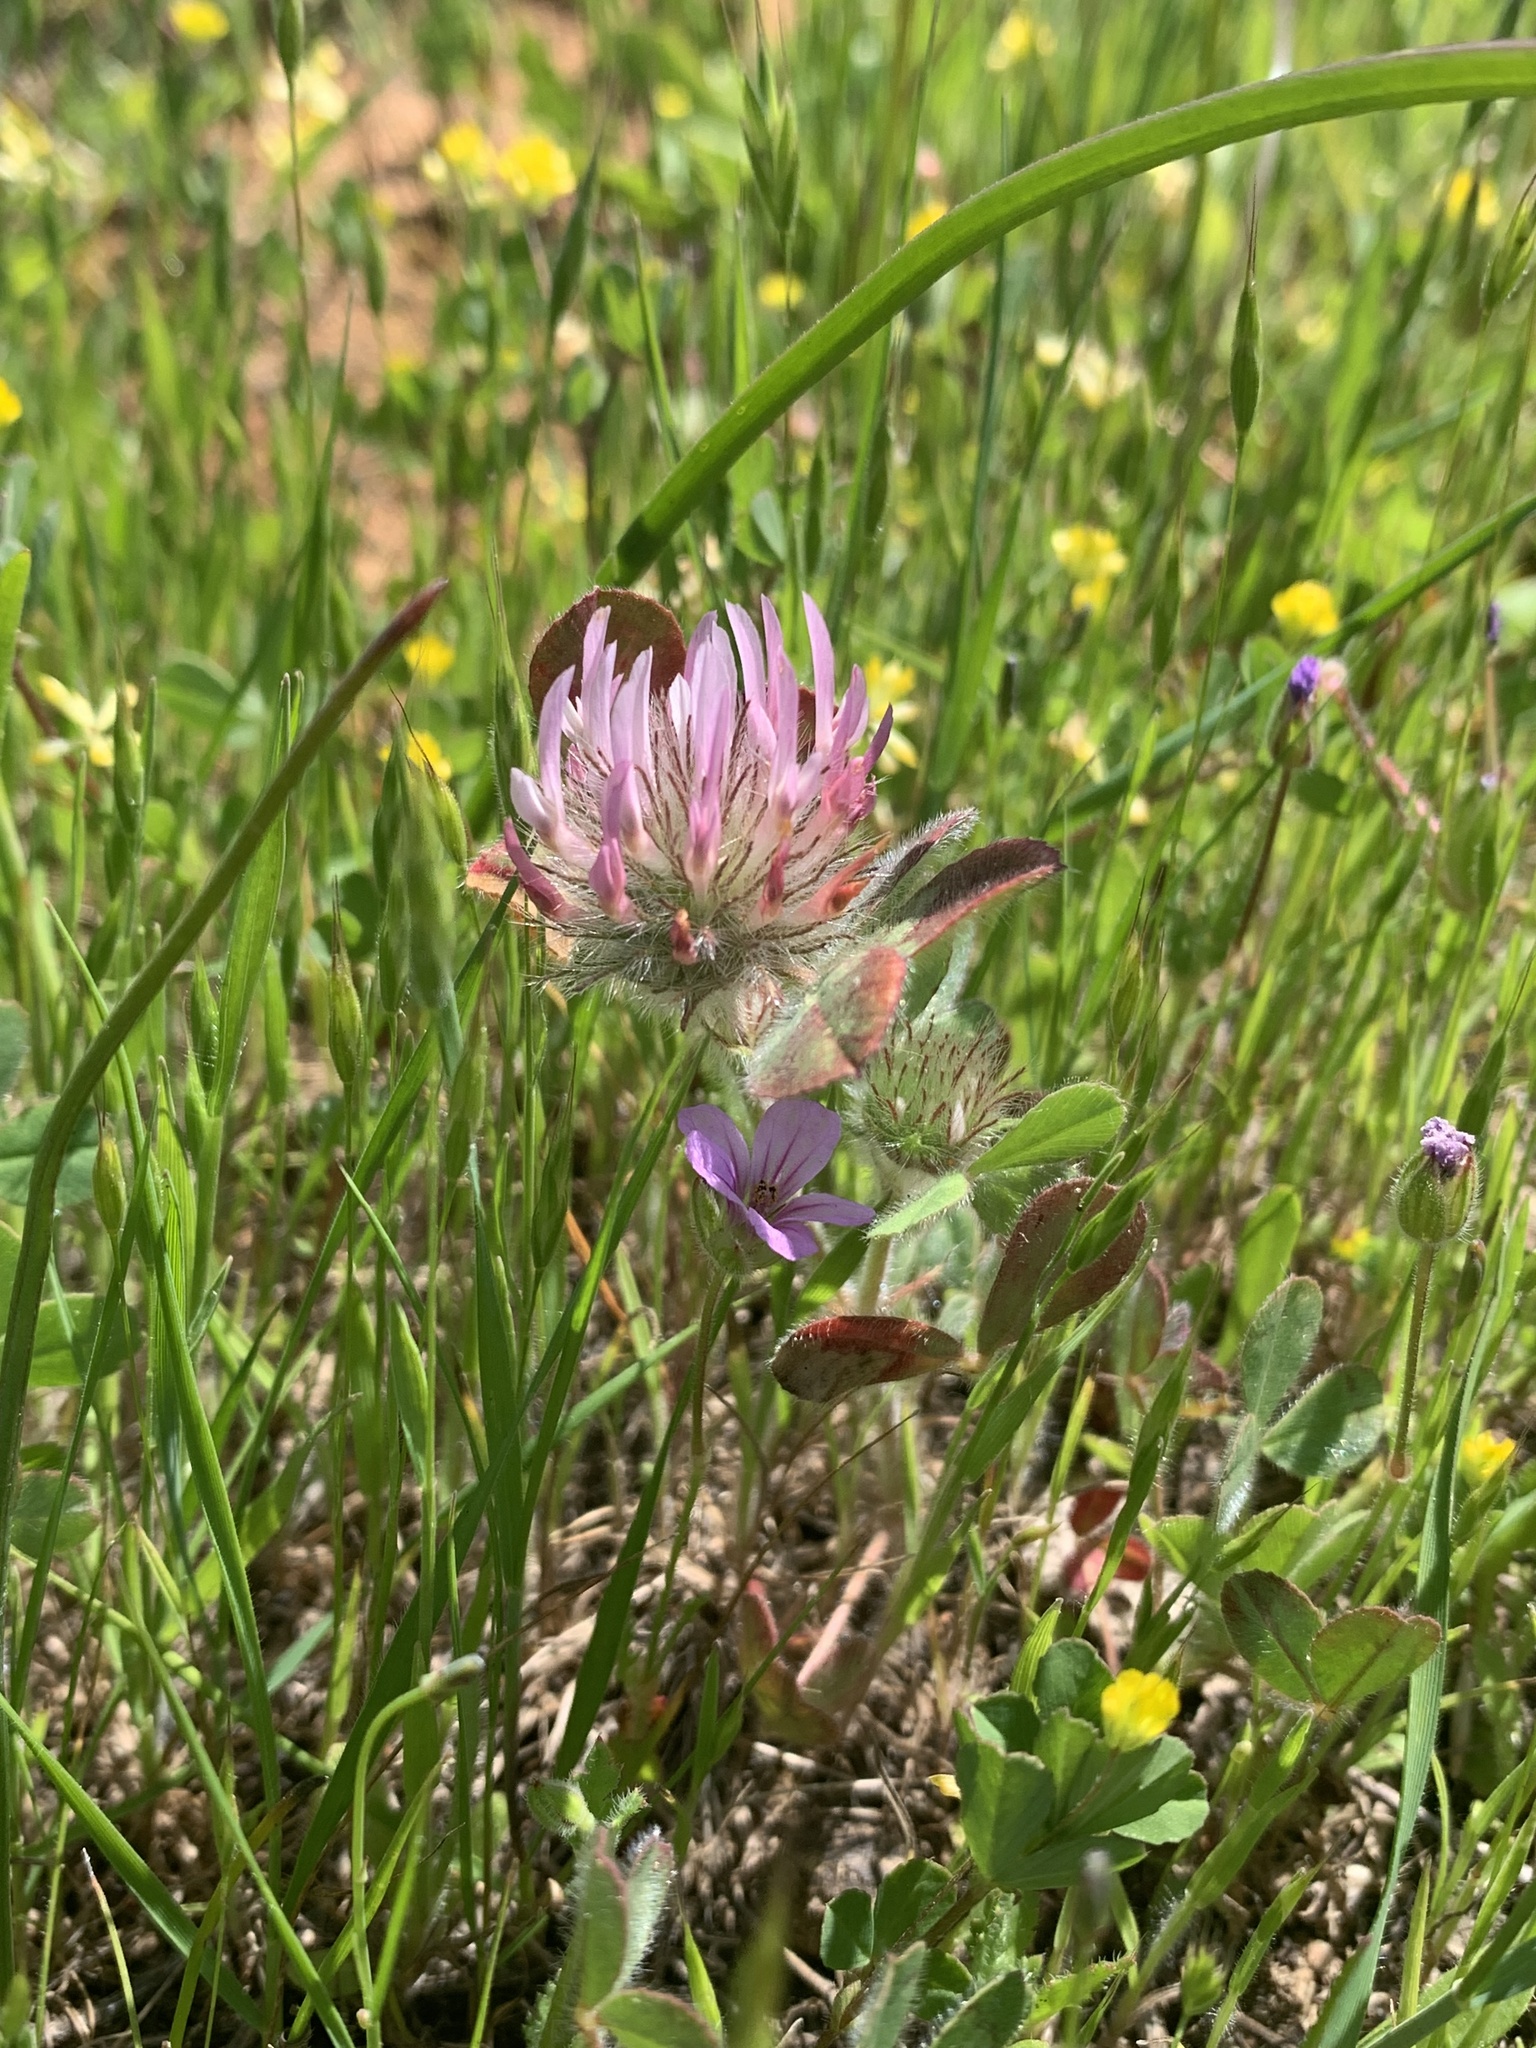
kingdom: Plantae
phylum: Tracheophyta
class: Magnoliopsida
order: Fabales
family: Fabaceae
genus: Trifolium
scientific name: Trifolium hirtum
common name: Rose clover
